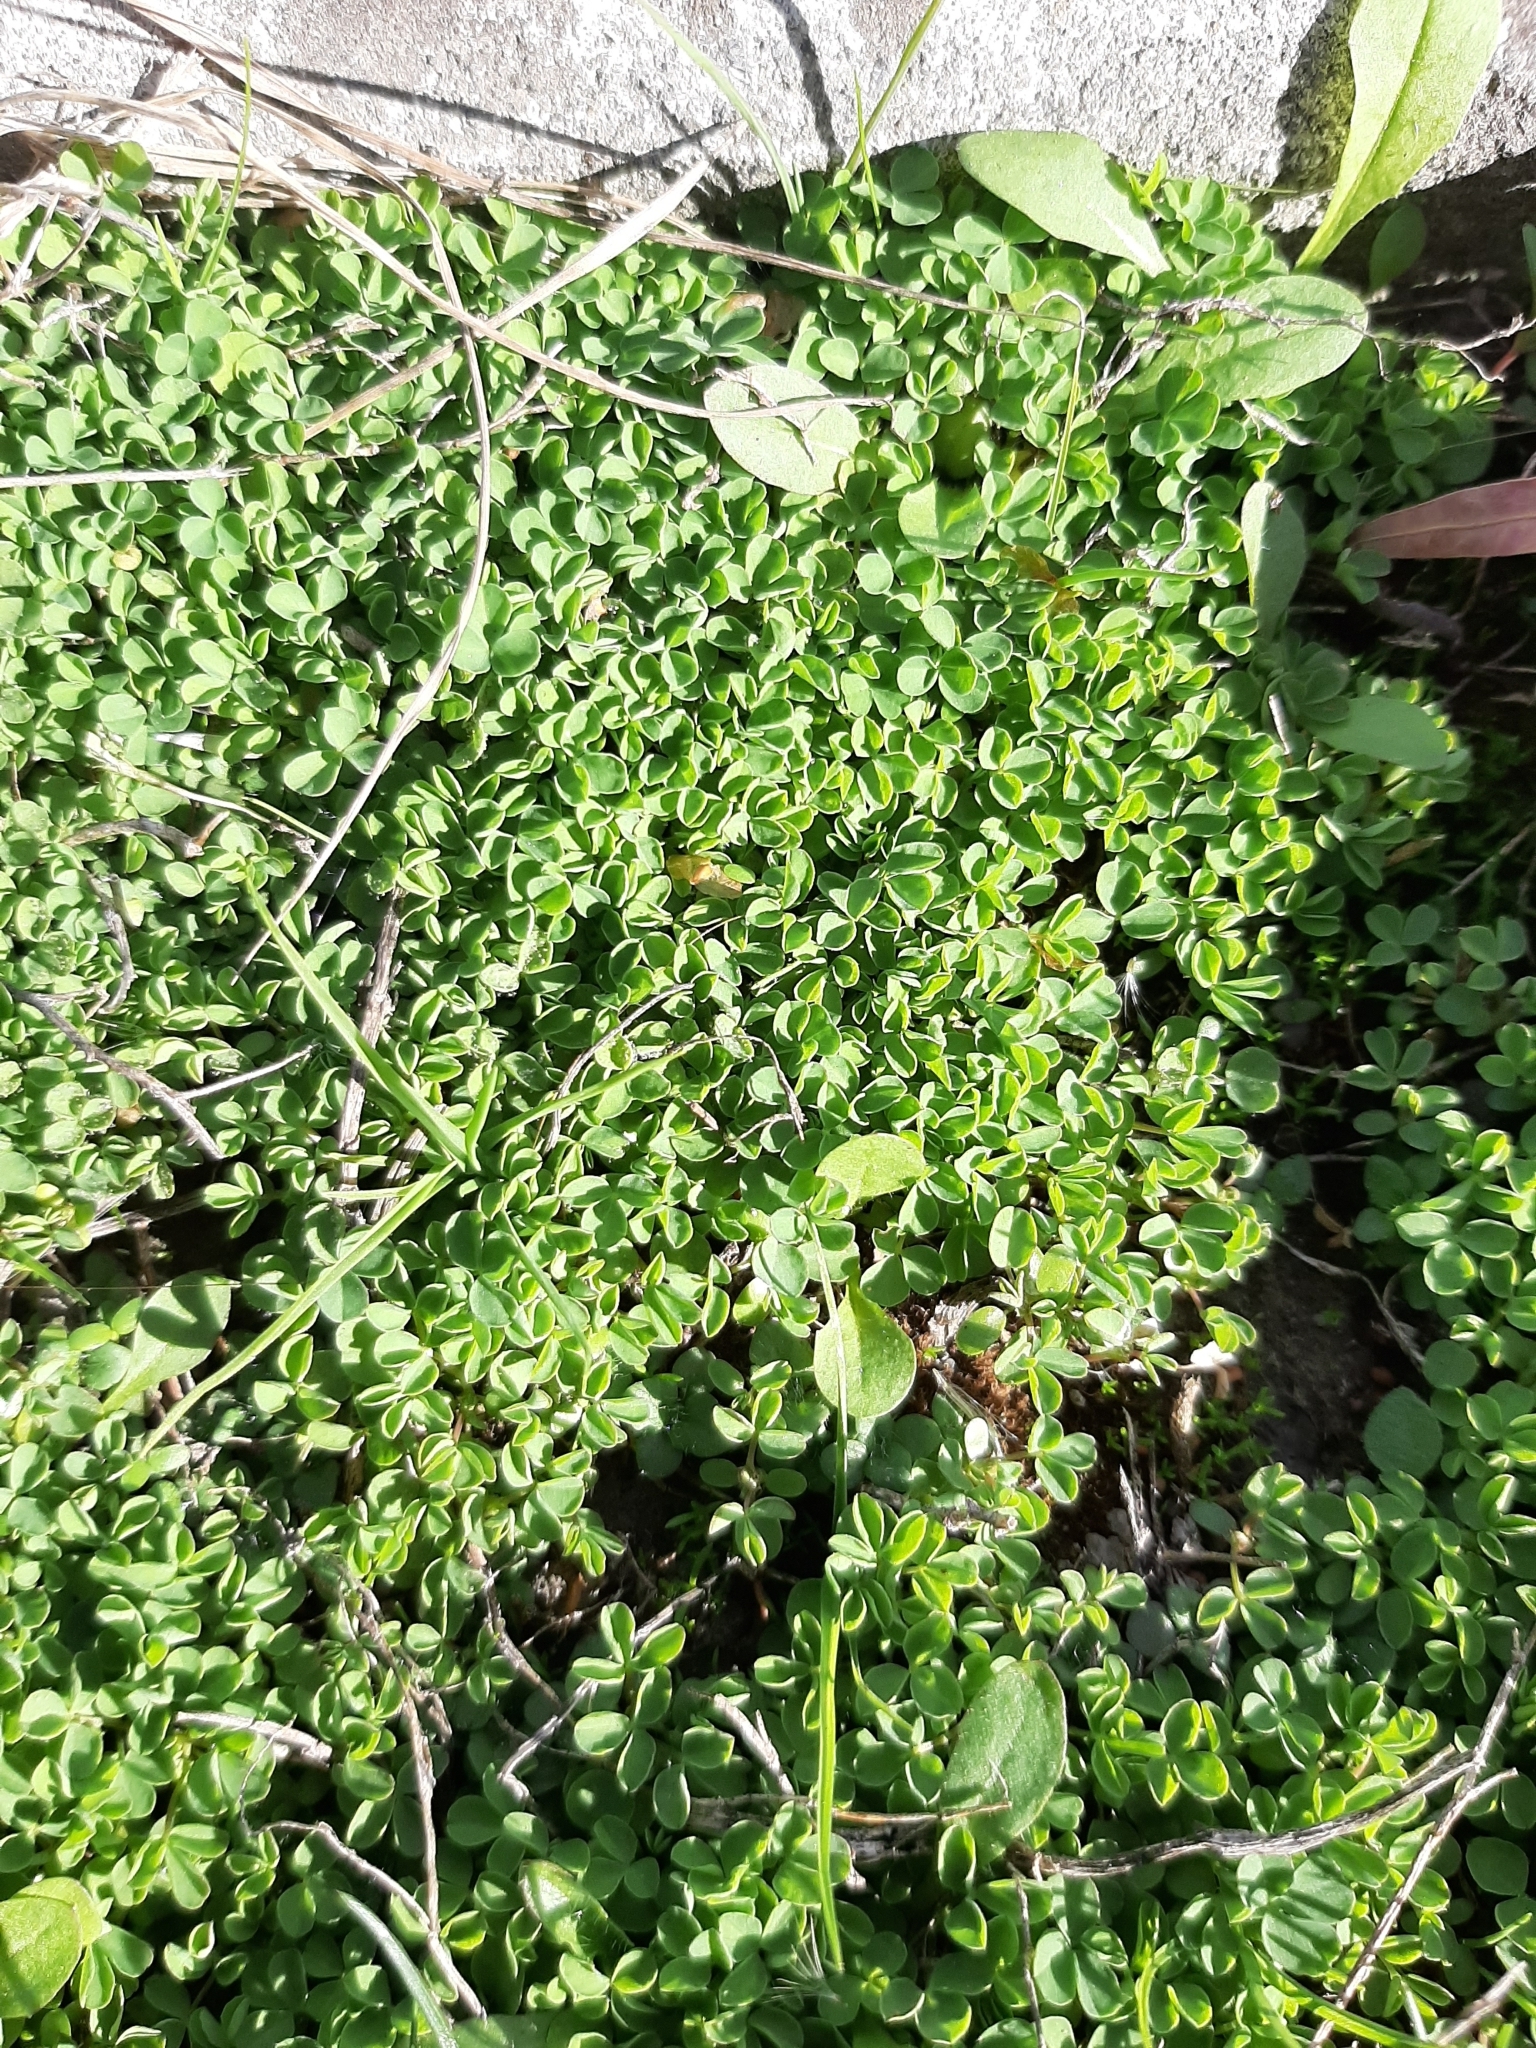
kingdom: Plantae
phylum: Tracheophyta
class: Magnoliopsida
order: Oxalidales
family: Oxalidaceae
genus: Oxalis
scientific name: Oxalis exilis
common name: Least yellow-sorrel
